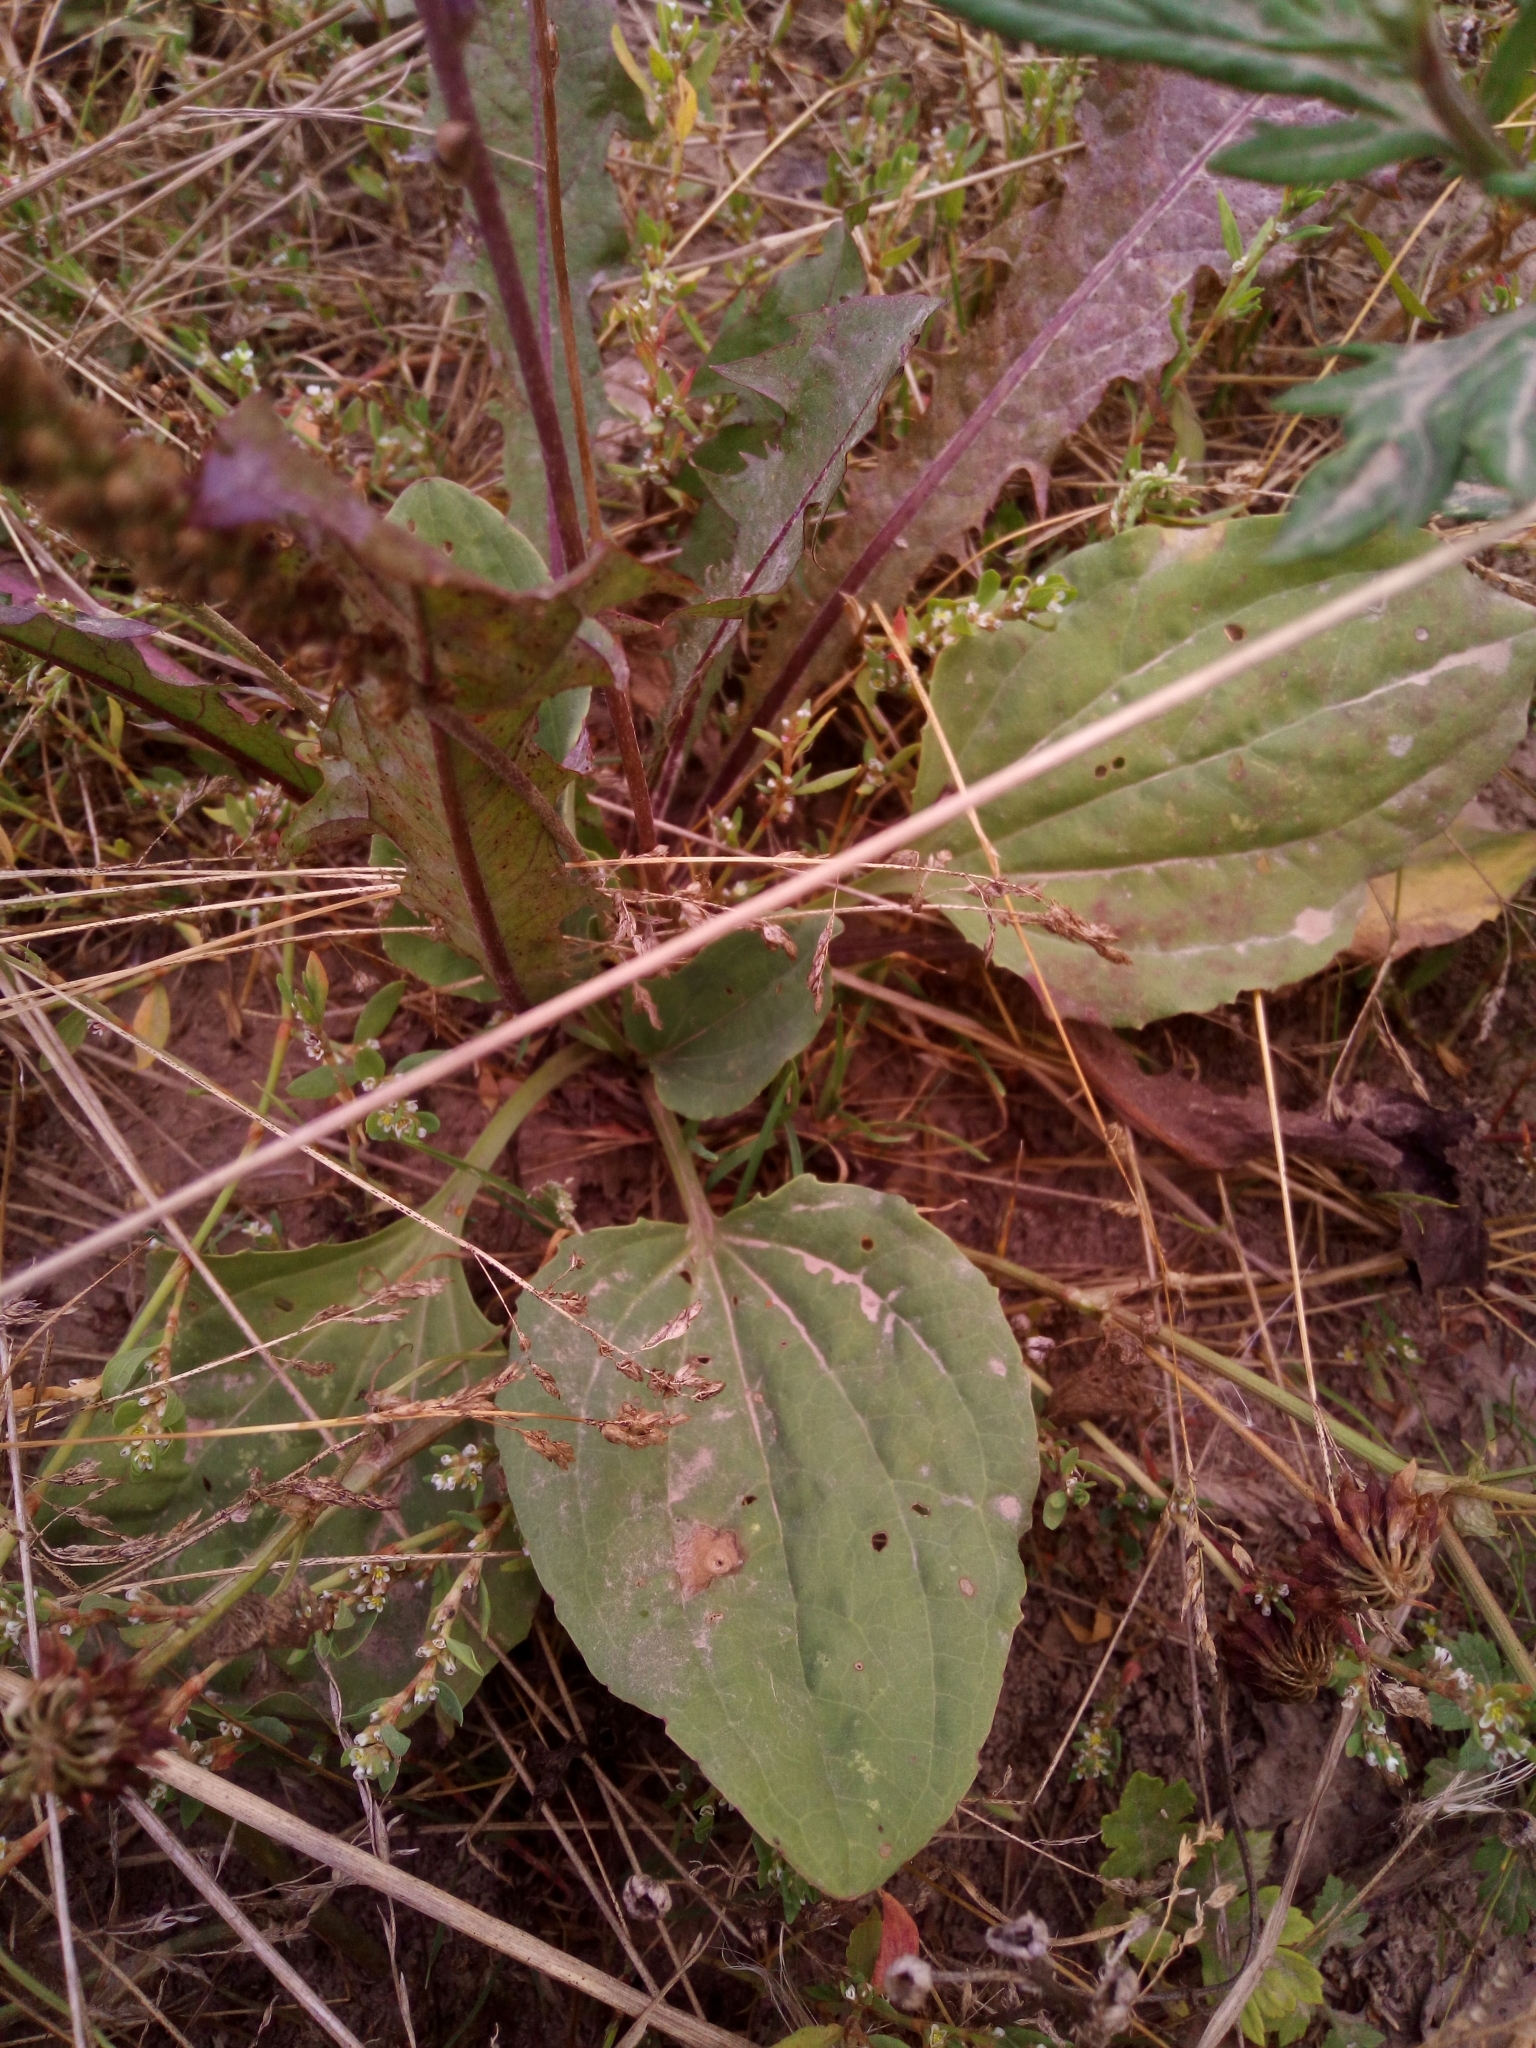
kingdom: Plantae
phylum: Tracheophyta
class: Magnoliopsida
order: Lamiales
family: Plantaginaceae
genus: Plantago
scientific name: Plantago major
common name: Common plantain
